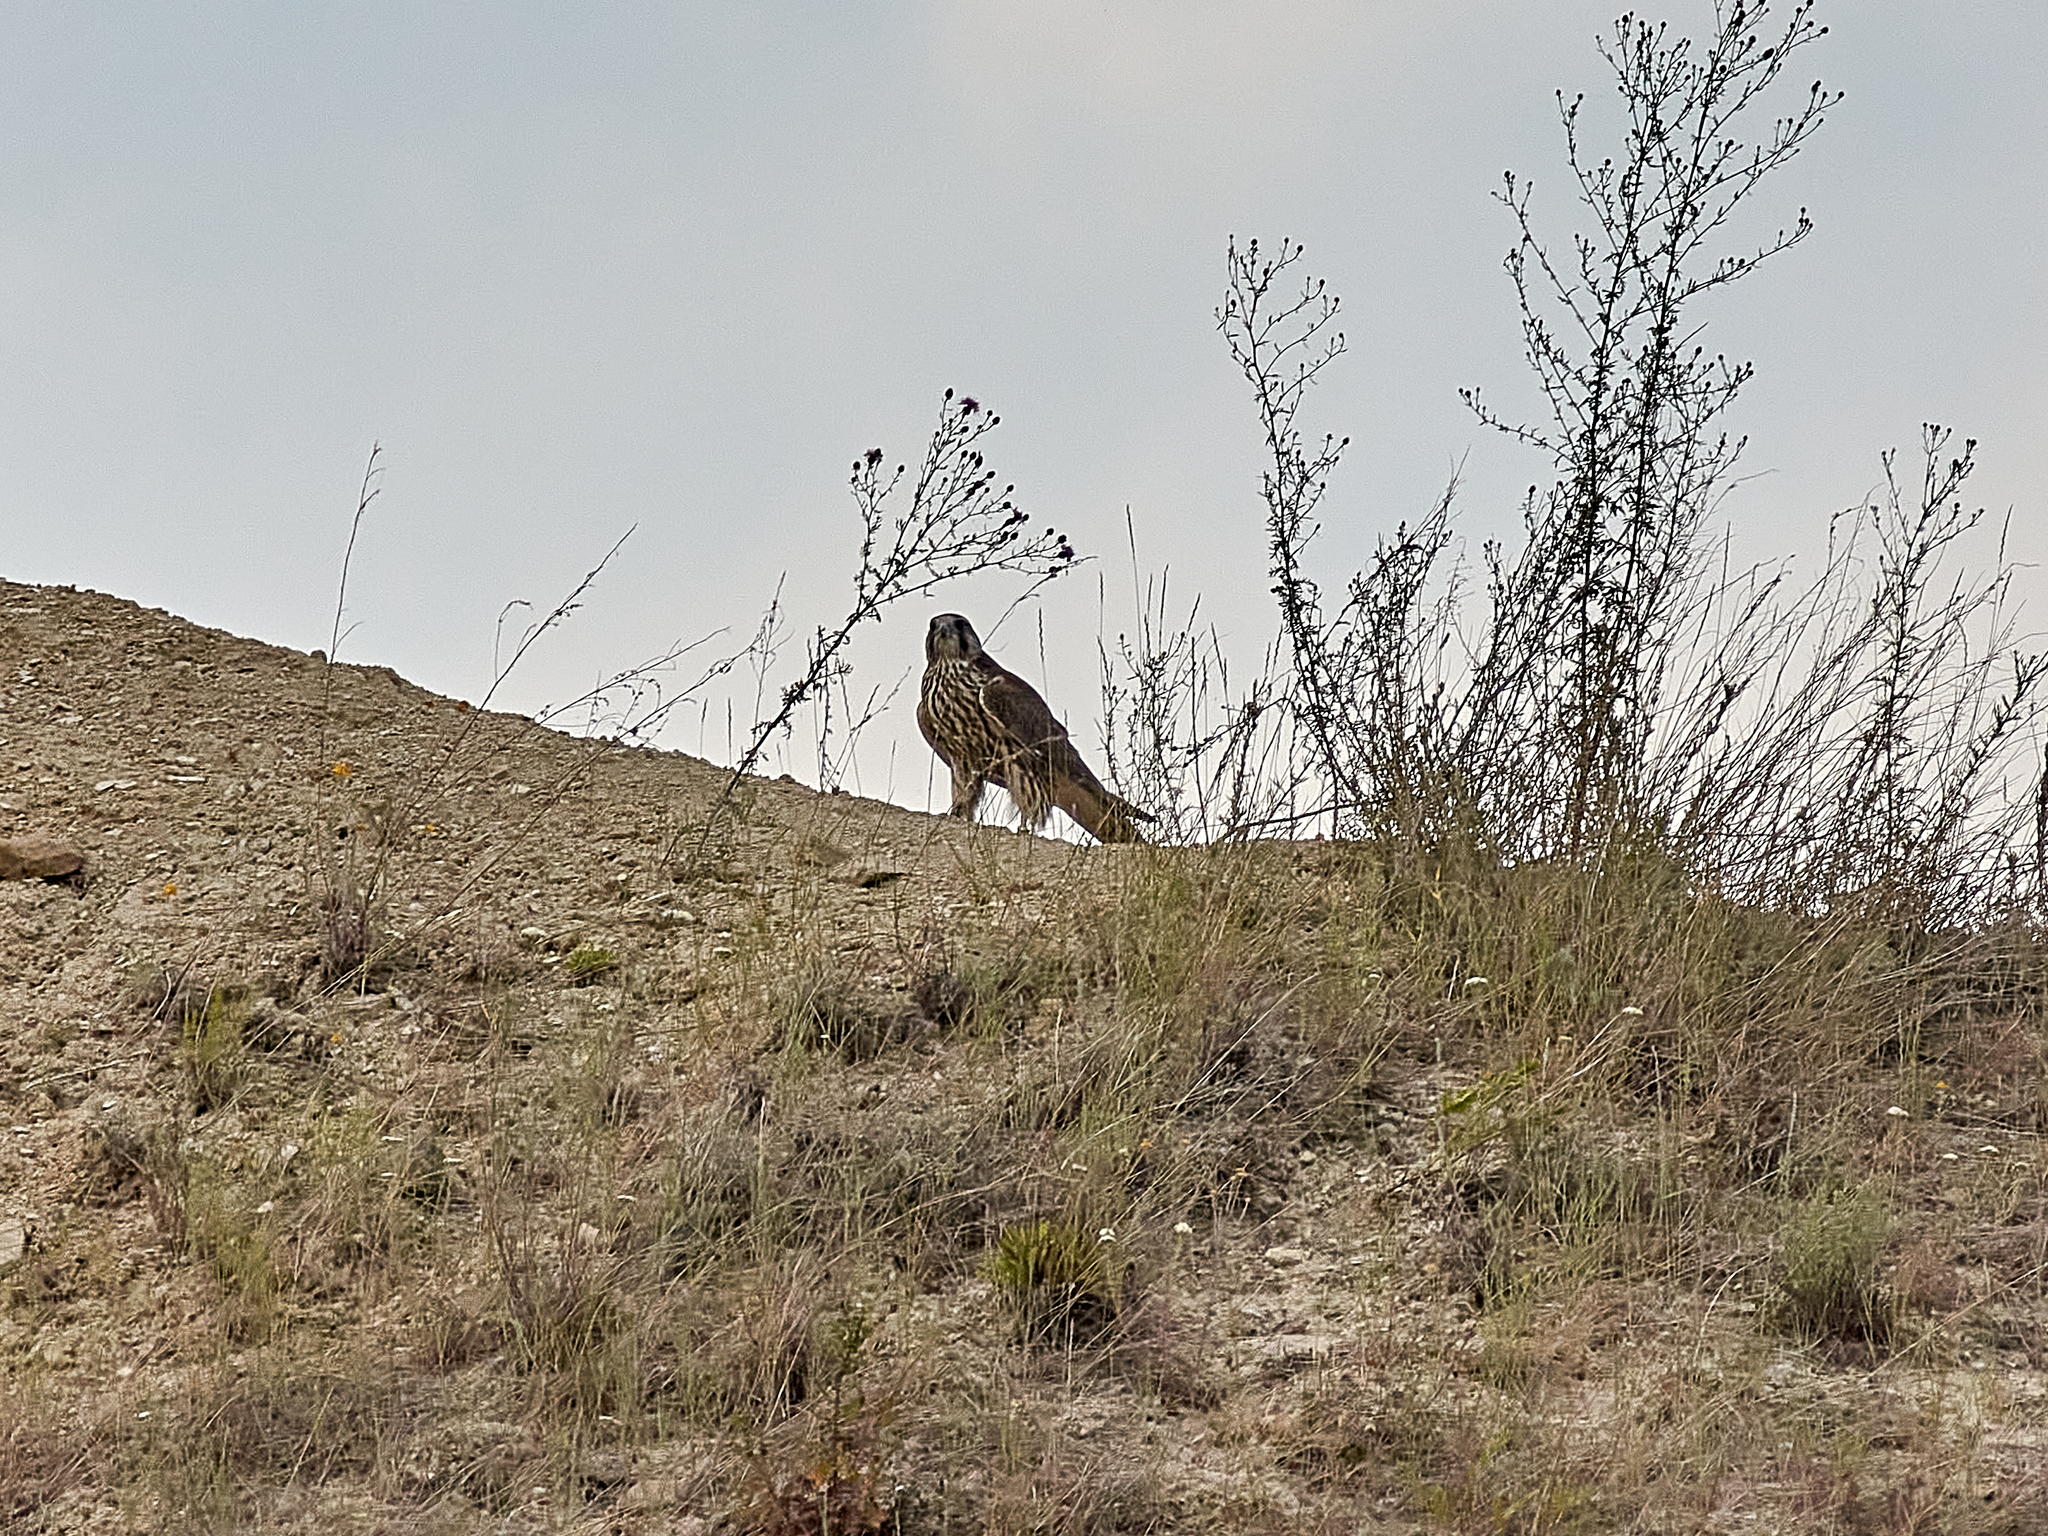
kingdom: Animalia
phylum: Chordata
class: Aves
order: Falconiformes
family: Falconidae
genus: Falco
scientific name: Falco cherrug
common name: Saker falcon
